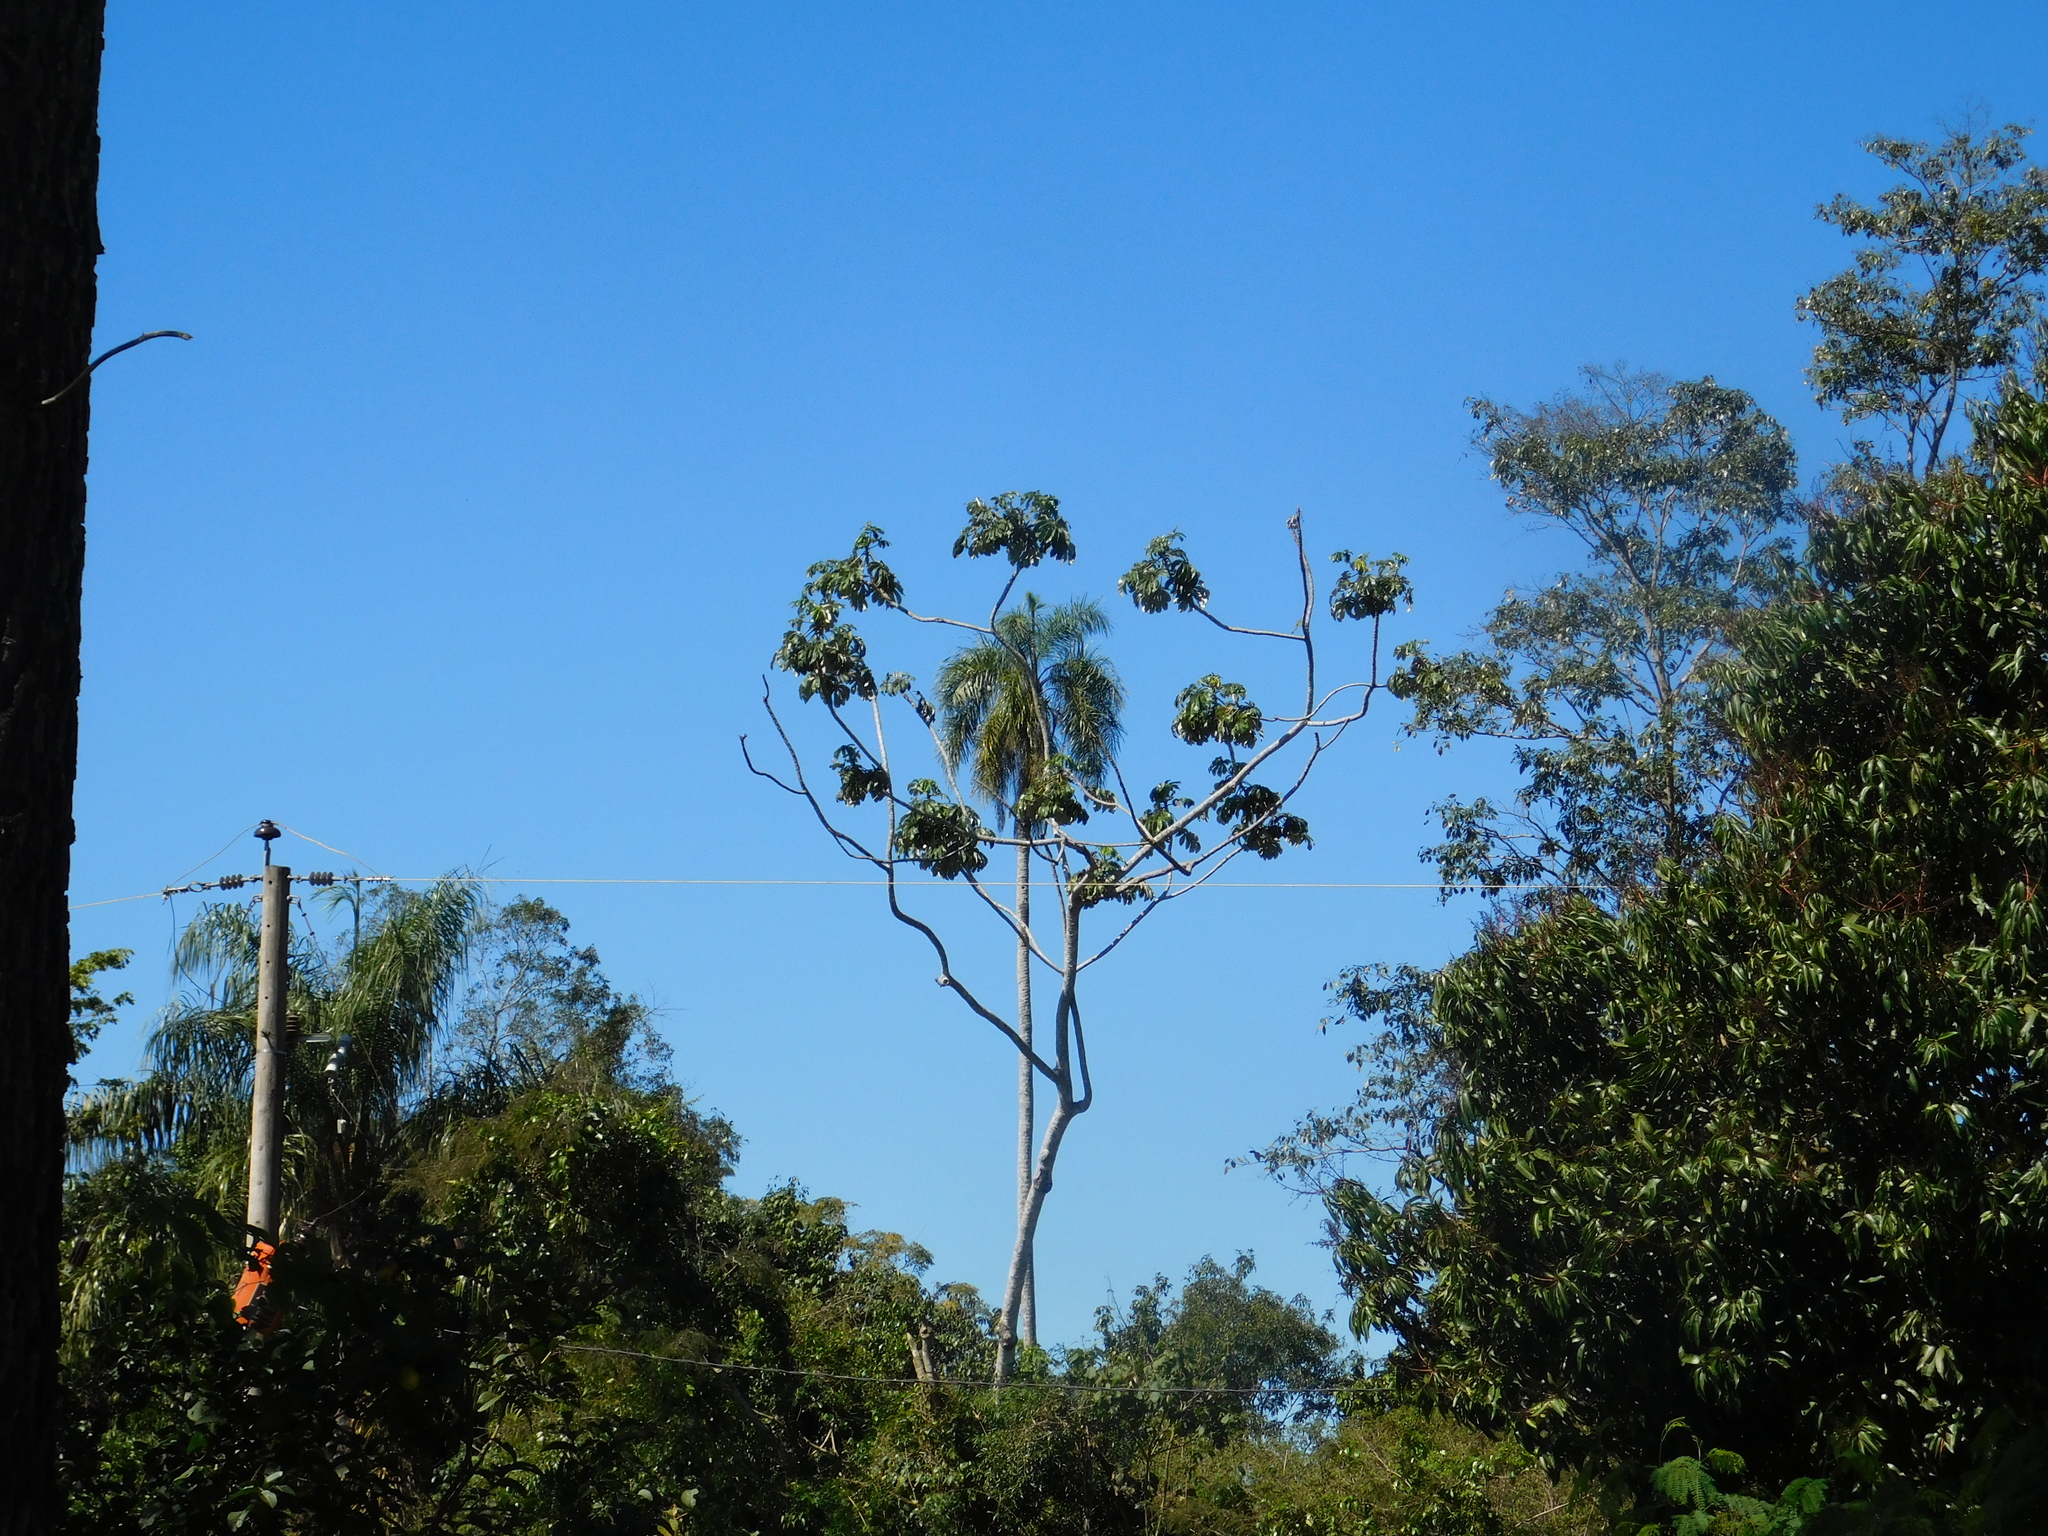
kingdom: Plantae
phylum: Tracheophyta
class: Magnoliopsida
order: Rosales
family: Urticaceae
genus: Cecropia
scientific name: Cecropia pachystachya
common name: Ambay pumpwood
